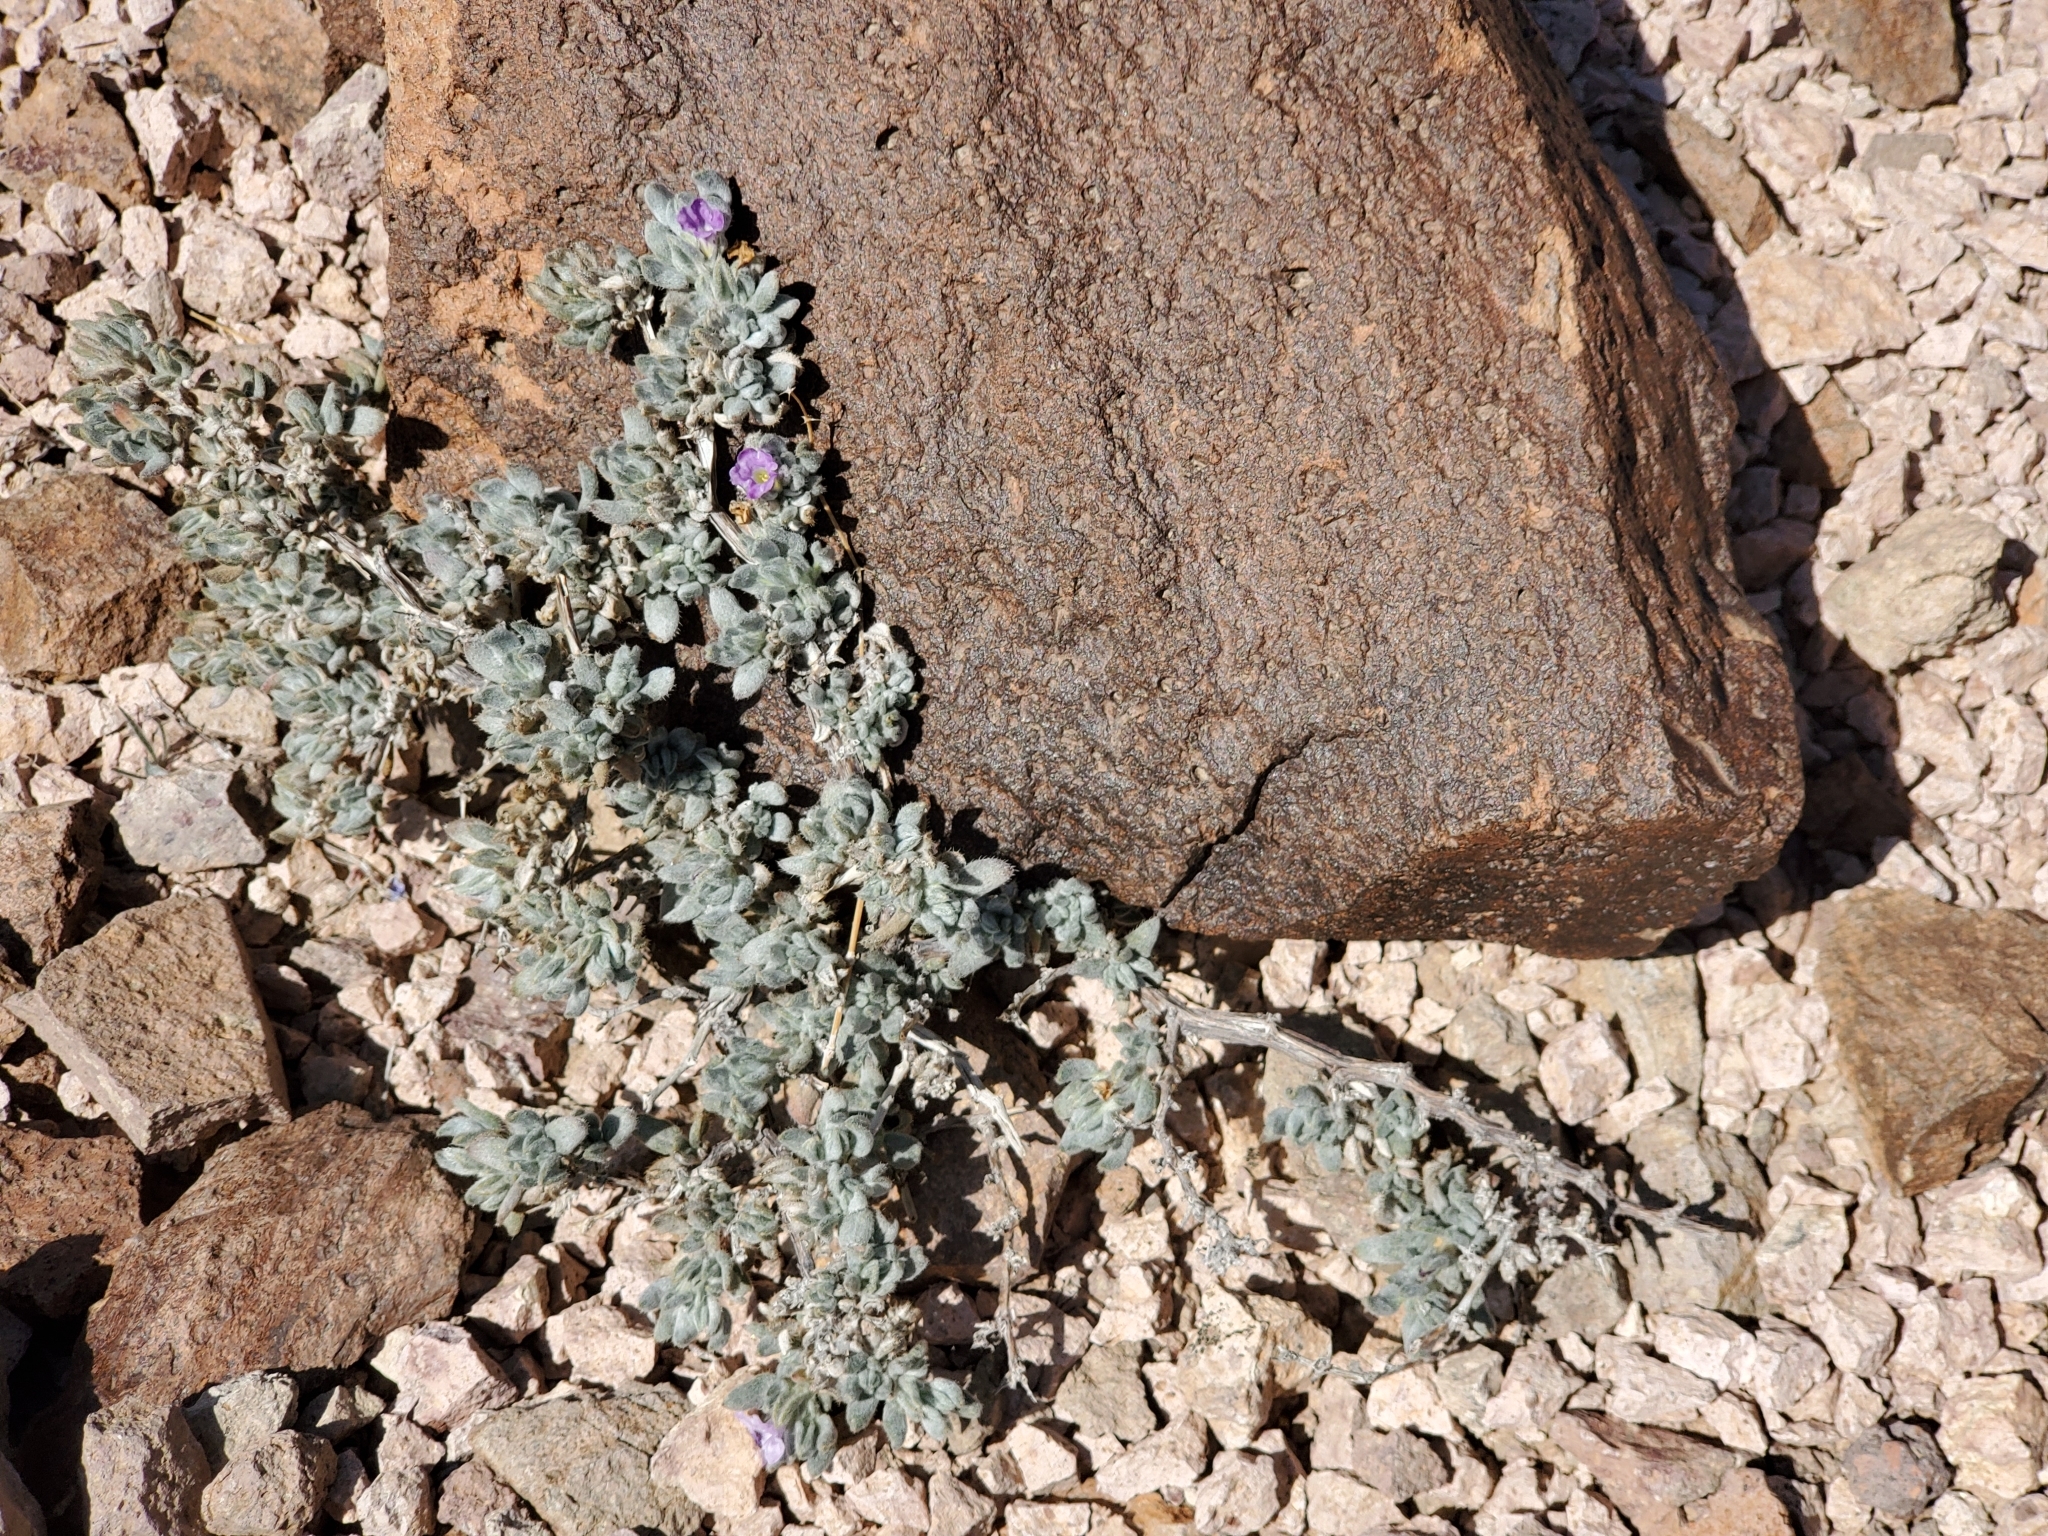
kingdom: Plantae
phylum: Tracheophyta
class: Magnoliopsida
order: Boraginales
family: Ehretiaceae
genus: Tiquilia
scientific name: Tiquilia canescens
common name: Hairy tiquilia
